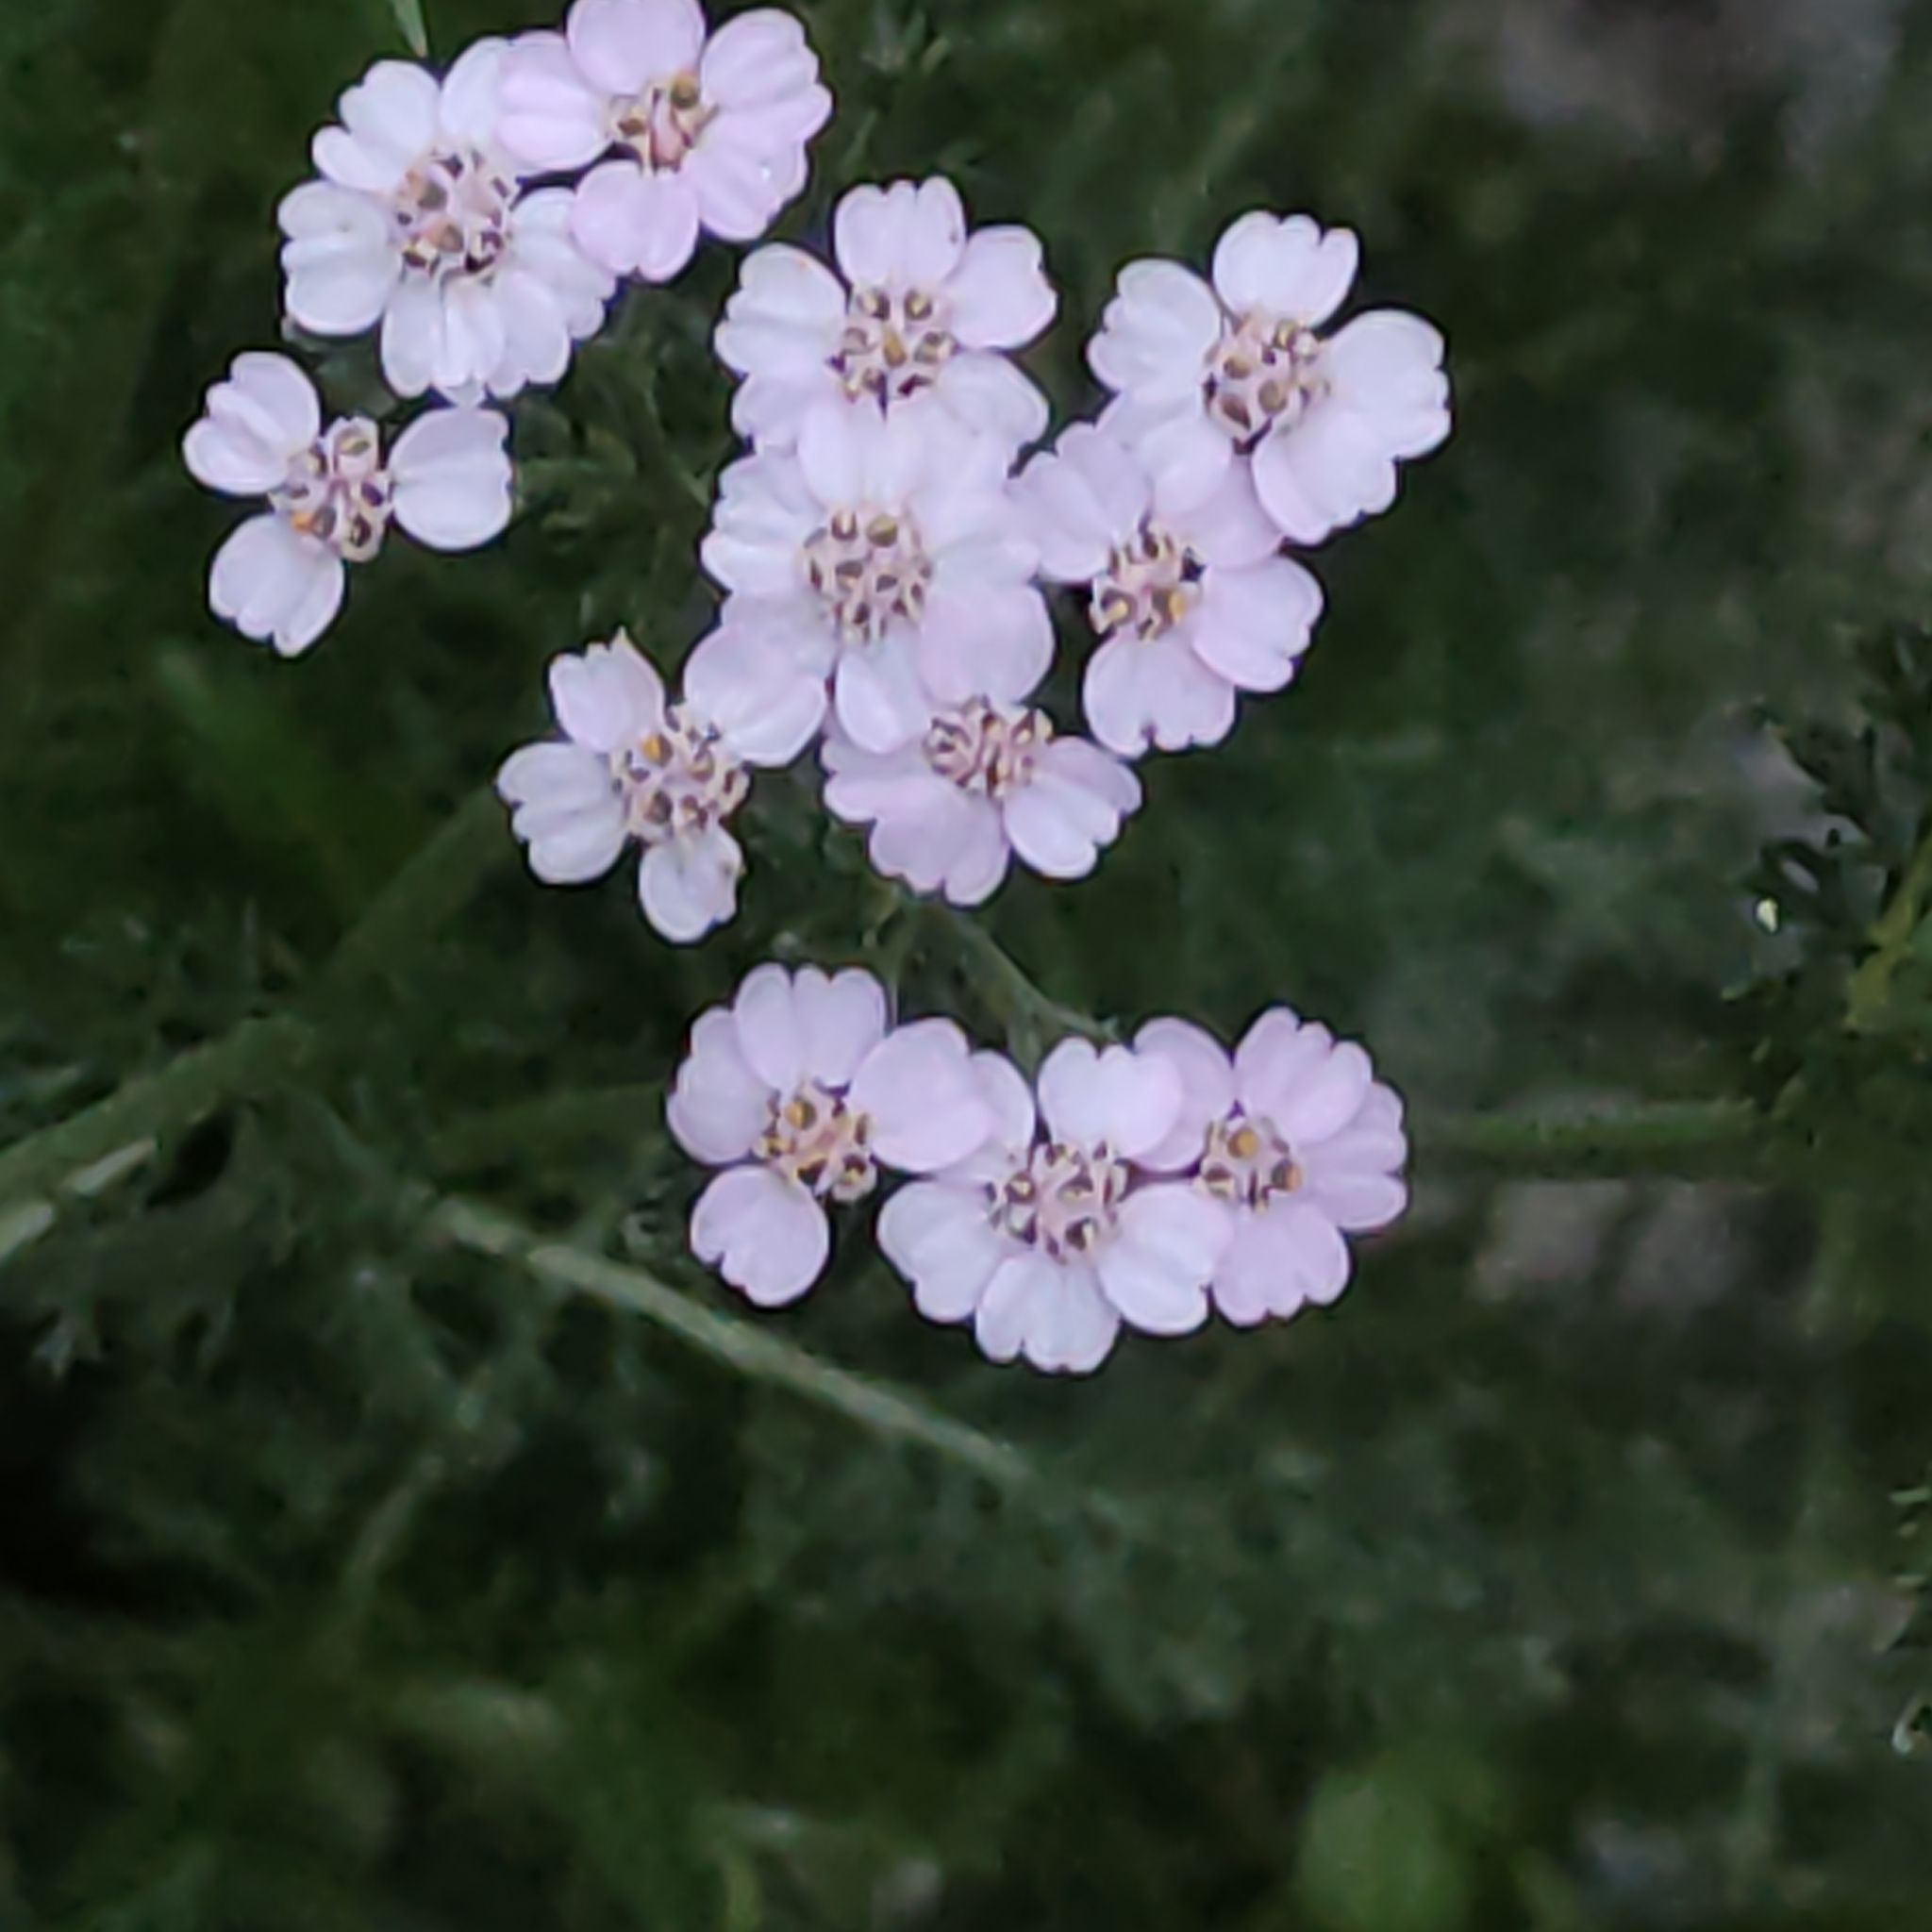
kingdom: Plantae
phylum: Tracheophyta
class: Magnoliopsida
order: Asterales
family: Asteraceae
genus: Achillea
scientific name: Achillea millefolium
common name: Yarrow
